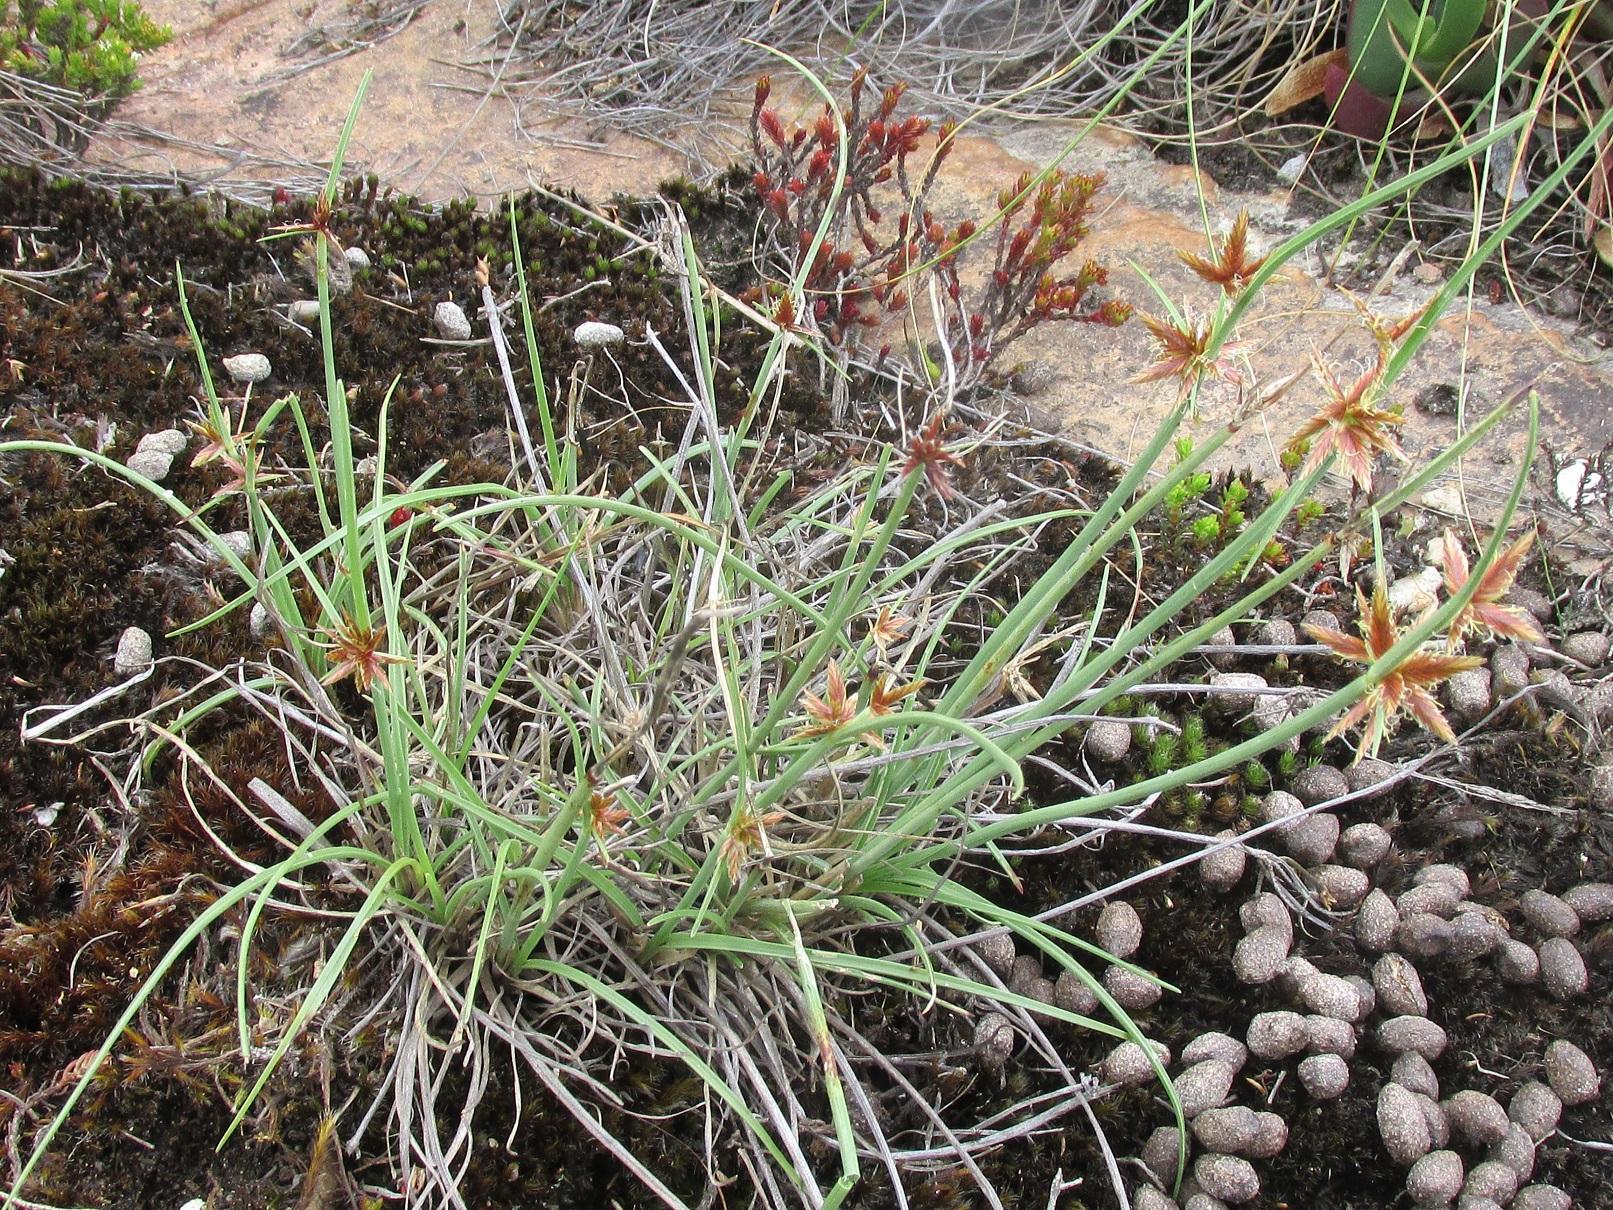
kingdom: Plantae
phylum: Tracheophyta
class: Liliopsida
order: Poales
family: Cyperaceae
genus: Cyperus
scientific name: Cyperus semitrifidus
